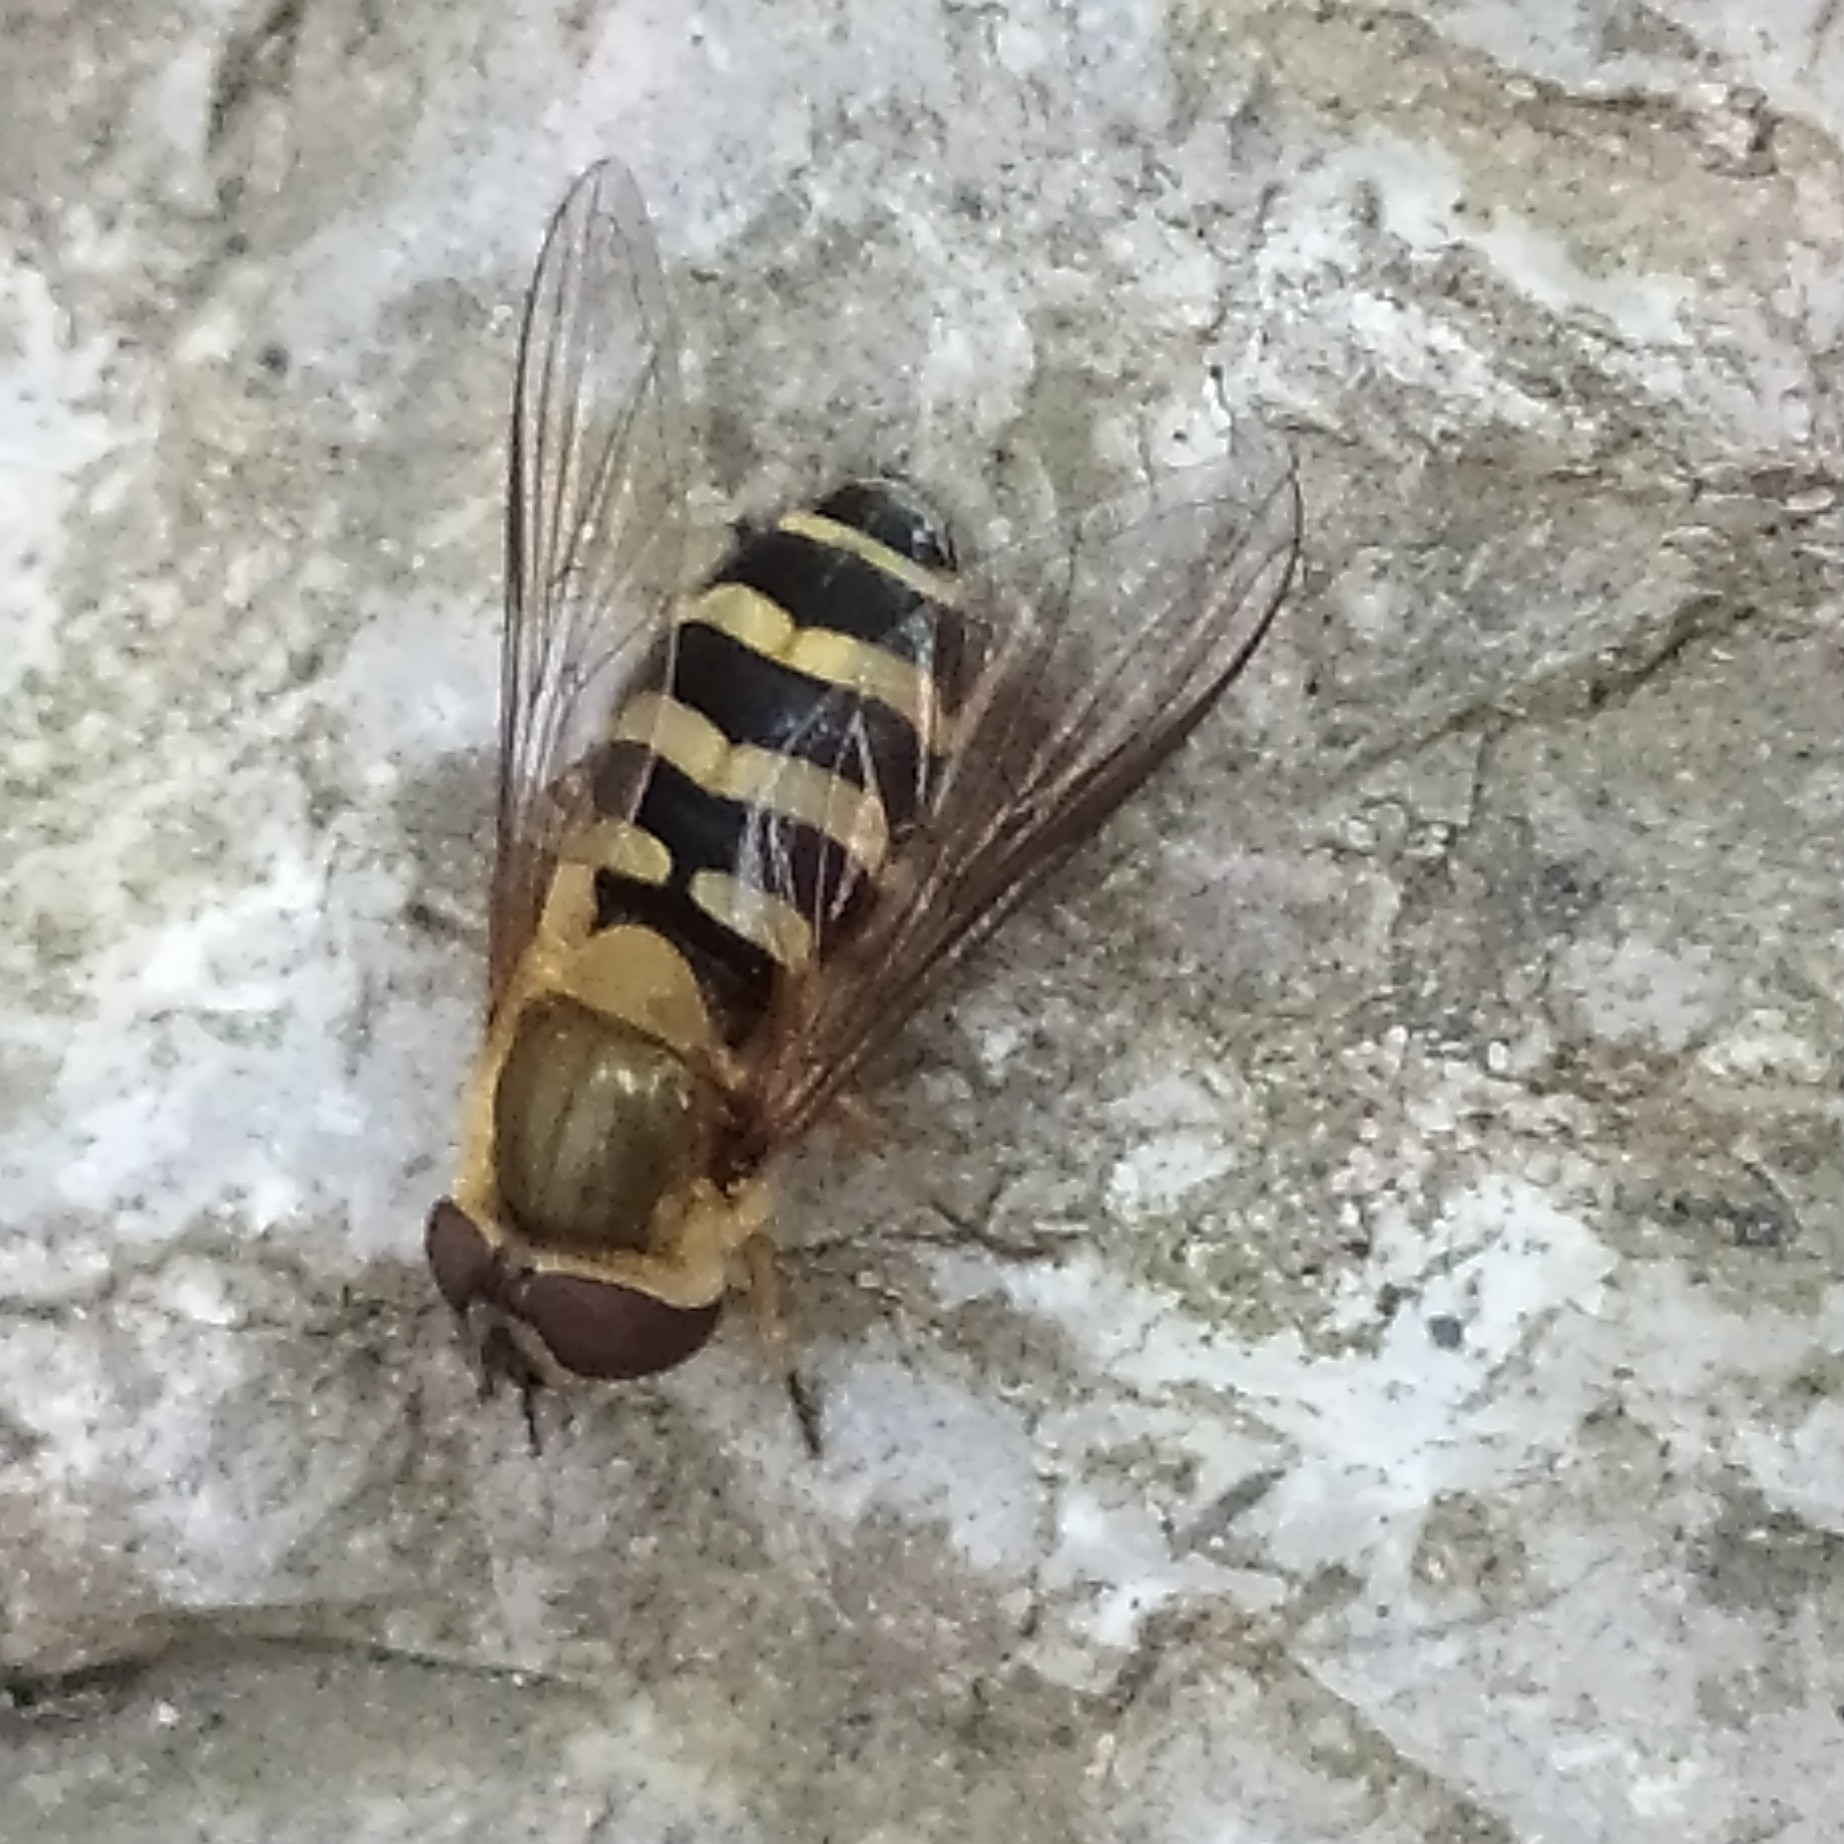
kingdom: Animalia
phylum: Arthropoda
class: Insecta
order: Diptera
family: Syrphidae
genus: Syrphus
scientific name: Syrphus
